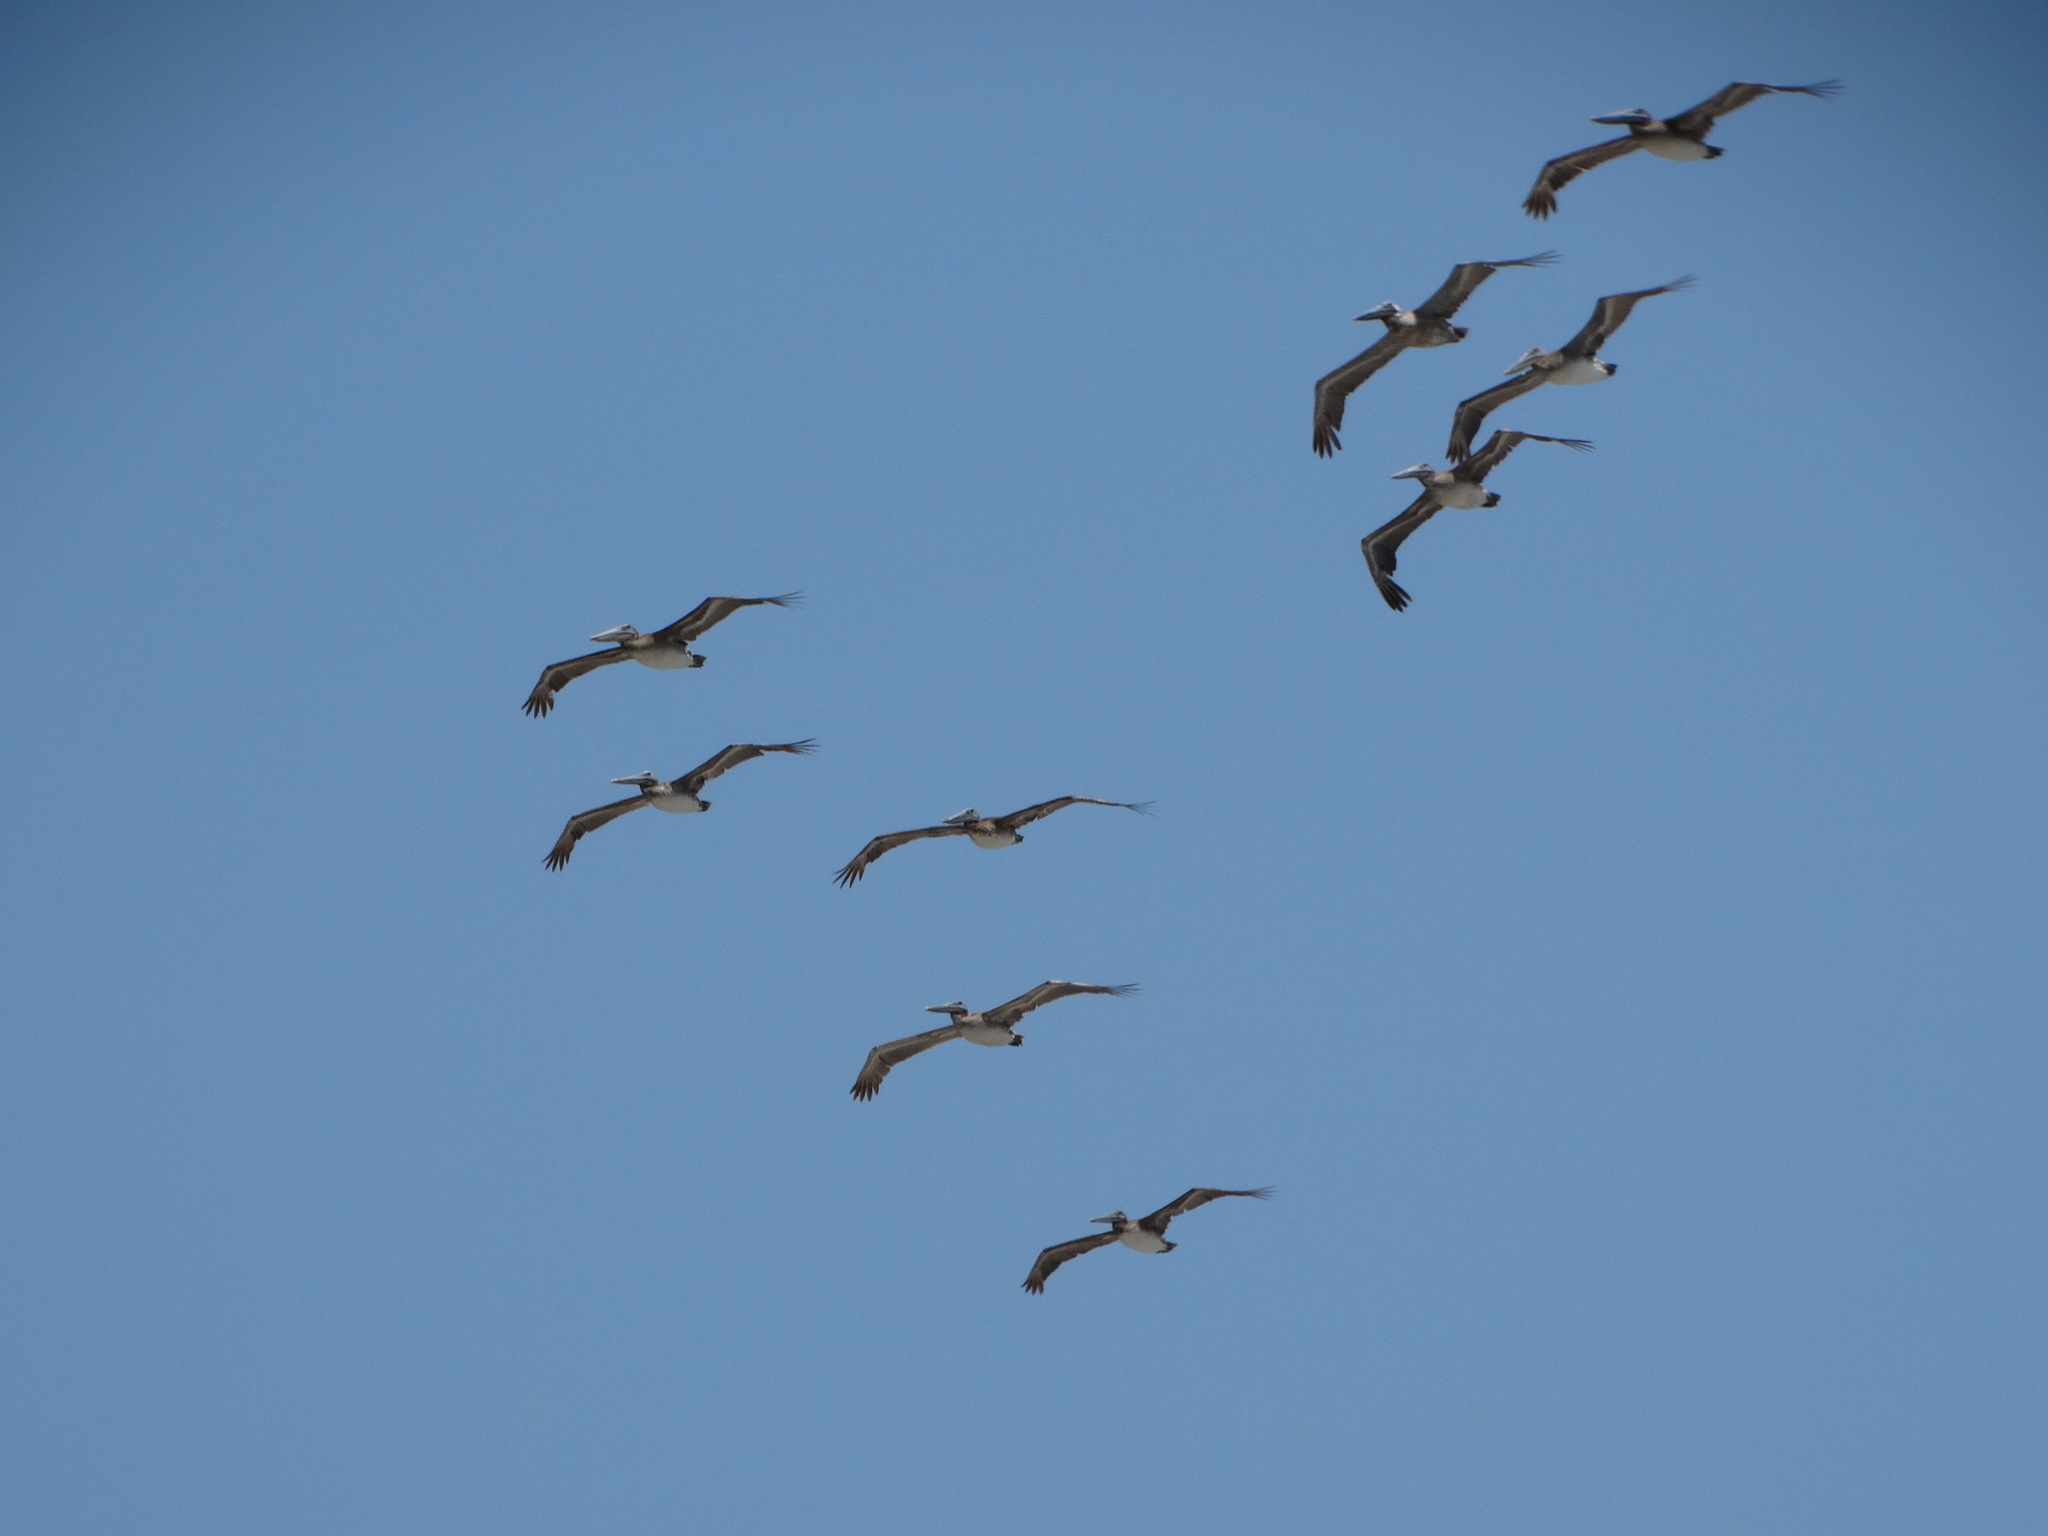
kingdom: Animalia
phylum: Chordata
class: Aves
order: Pelecaniformes
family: Pelecanidae
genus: Pelecanus
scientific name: Pelecanus occidentalis
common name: Brown pelican
